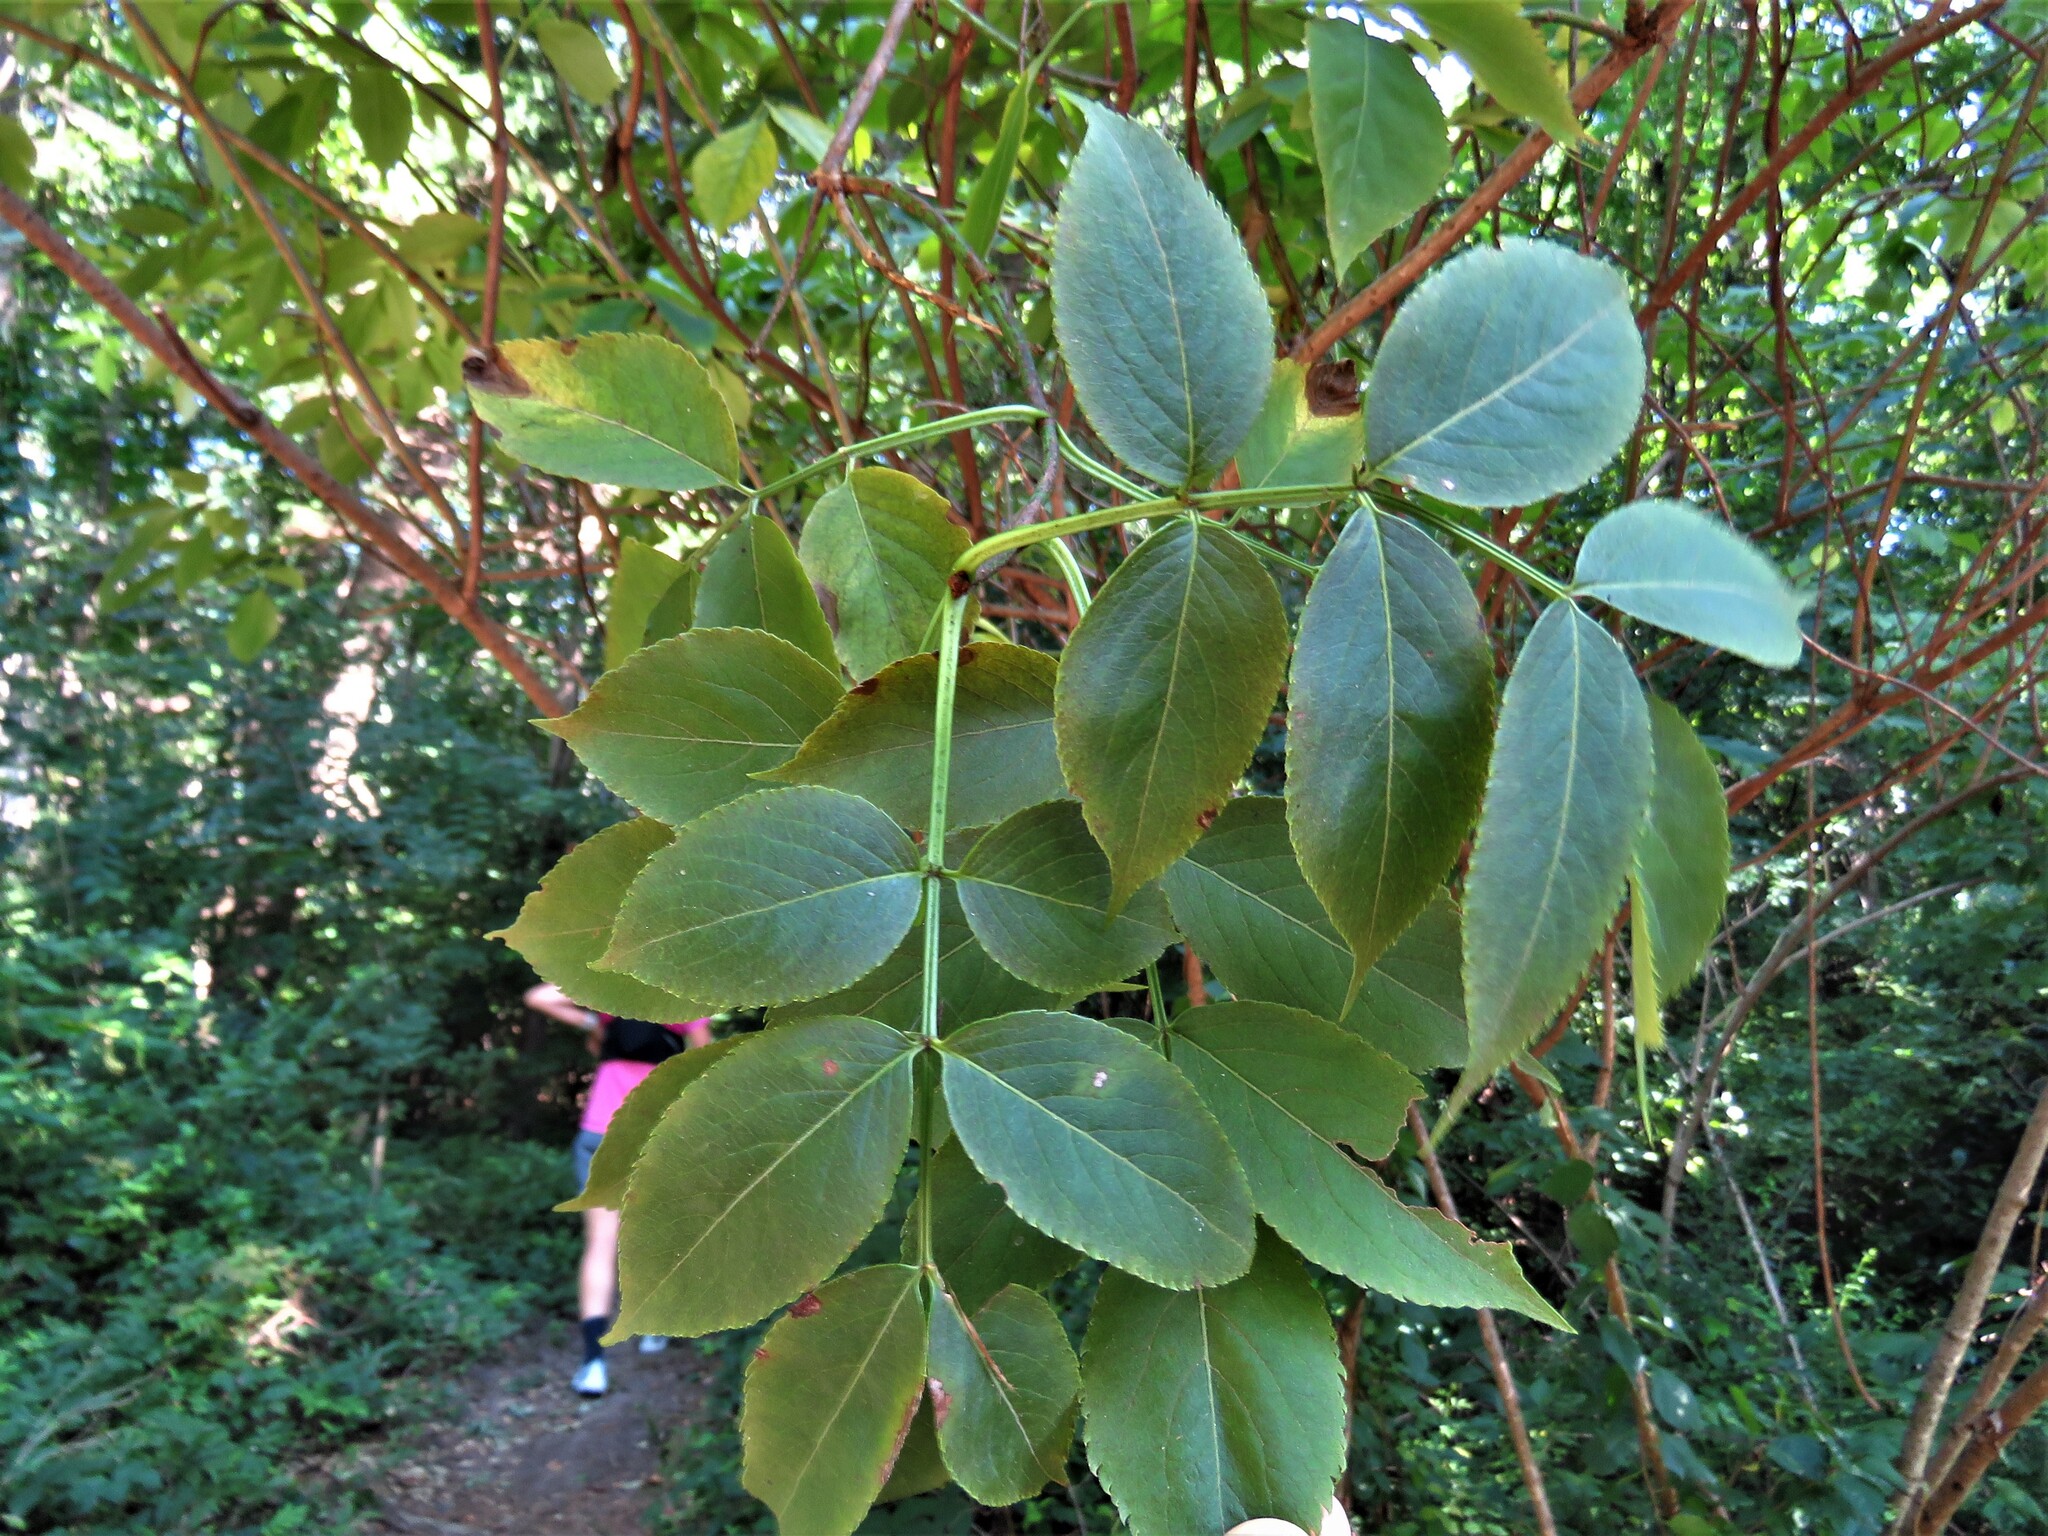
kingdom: Plantae
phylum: Tracheophyta
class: Magnoliopsida
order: Dipsacales
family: Viburnaceae
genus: Sambucus
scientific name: Sambucus canadensis
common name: American elder
